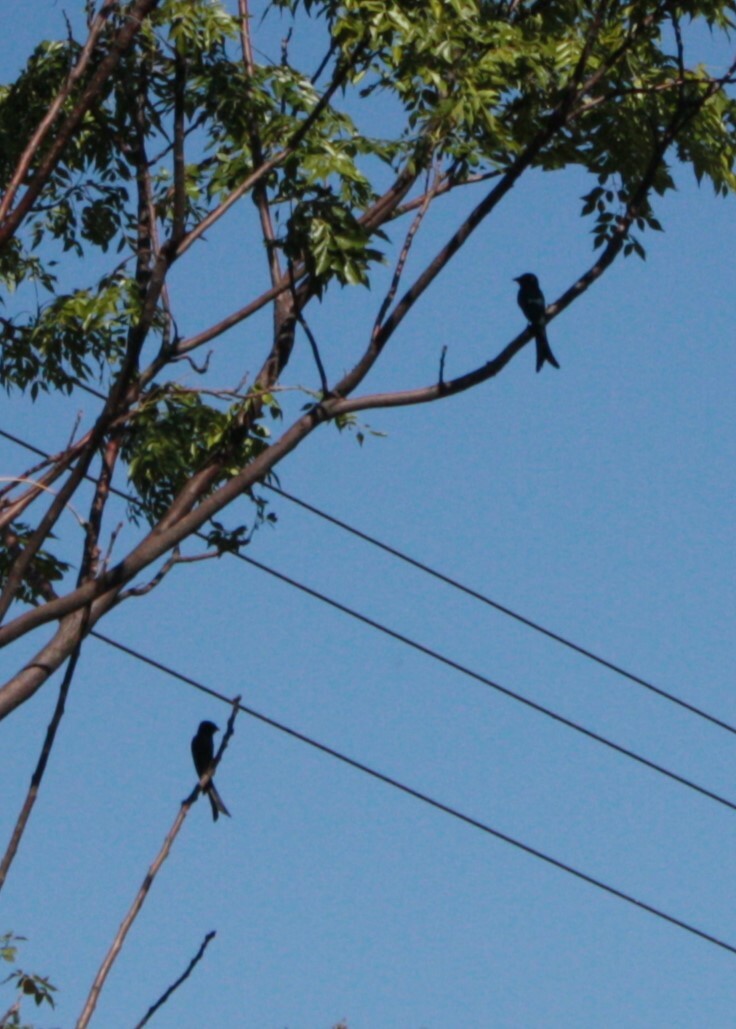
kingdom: Animalia
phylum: Chordata
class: Aves
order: Passeriformes
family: Dicruridae
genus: Dicrurus
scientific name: Dicrurus macrocercus
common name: Black drongo
